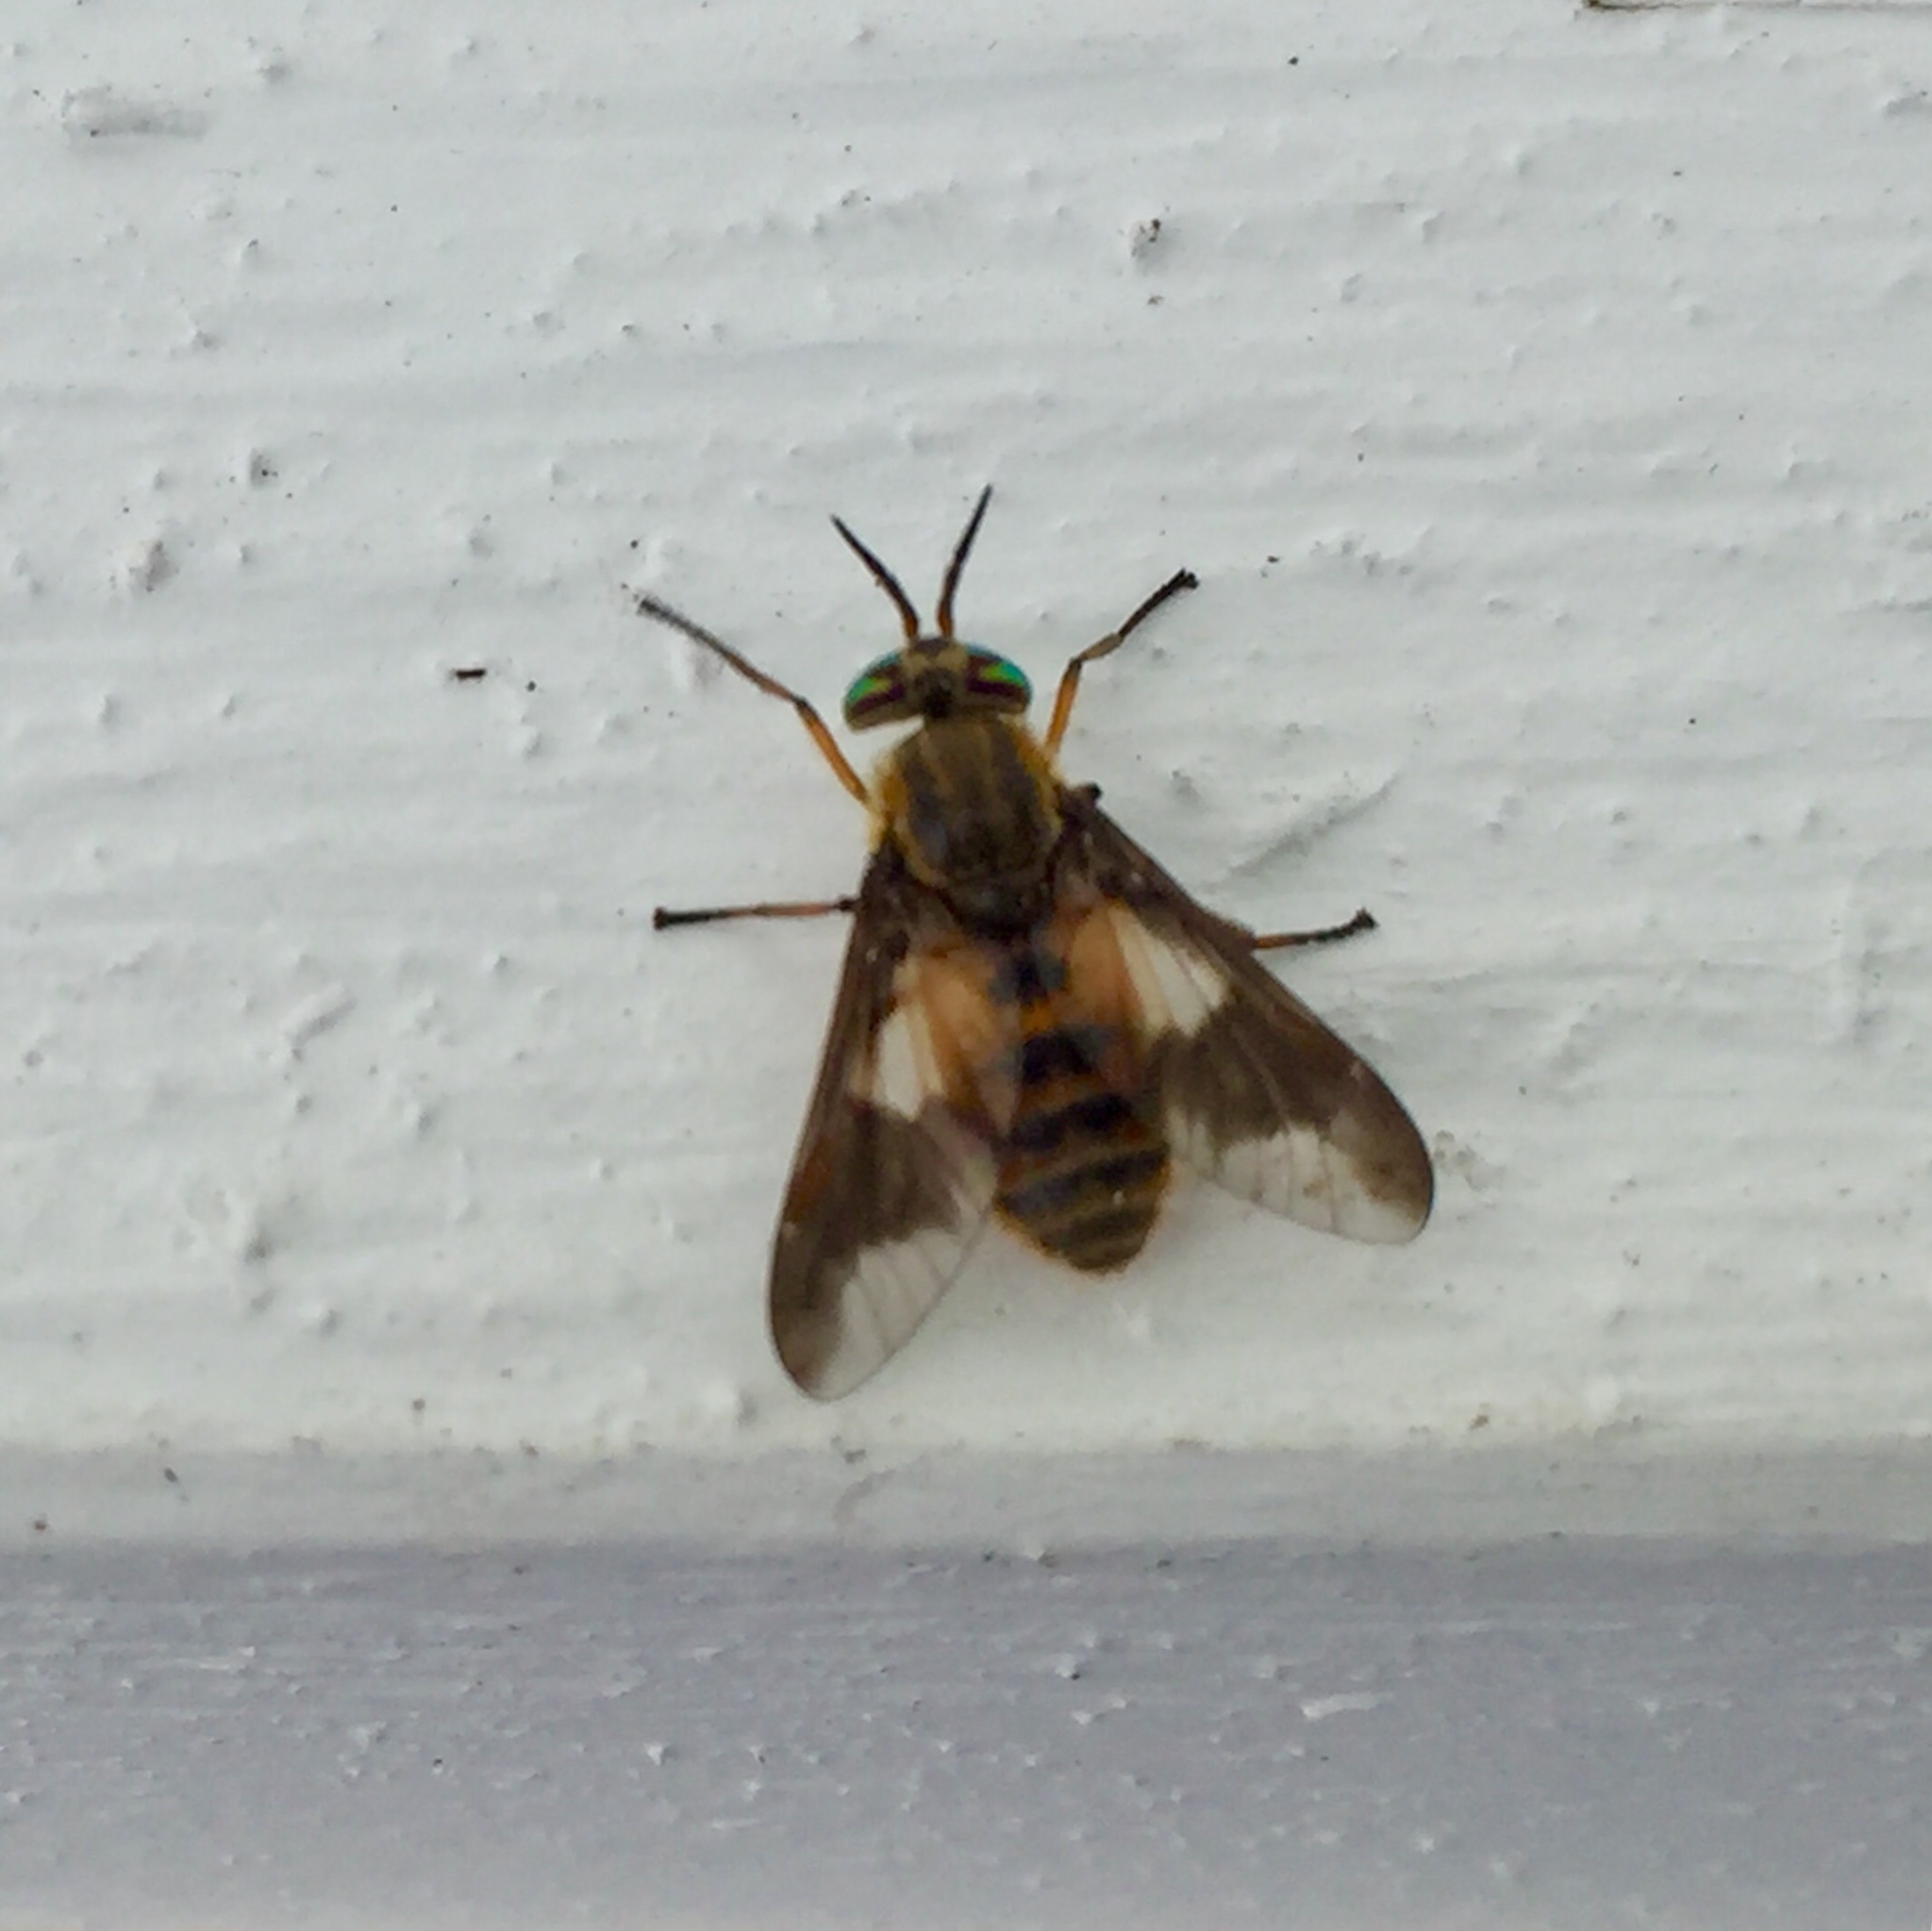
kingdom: Animalia
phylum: Arthropoda
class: Insecta
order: Diptera
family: Tabanidae
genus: Chrysops
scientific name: Chrysops frigidus
